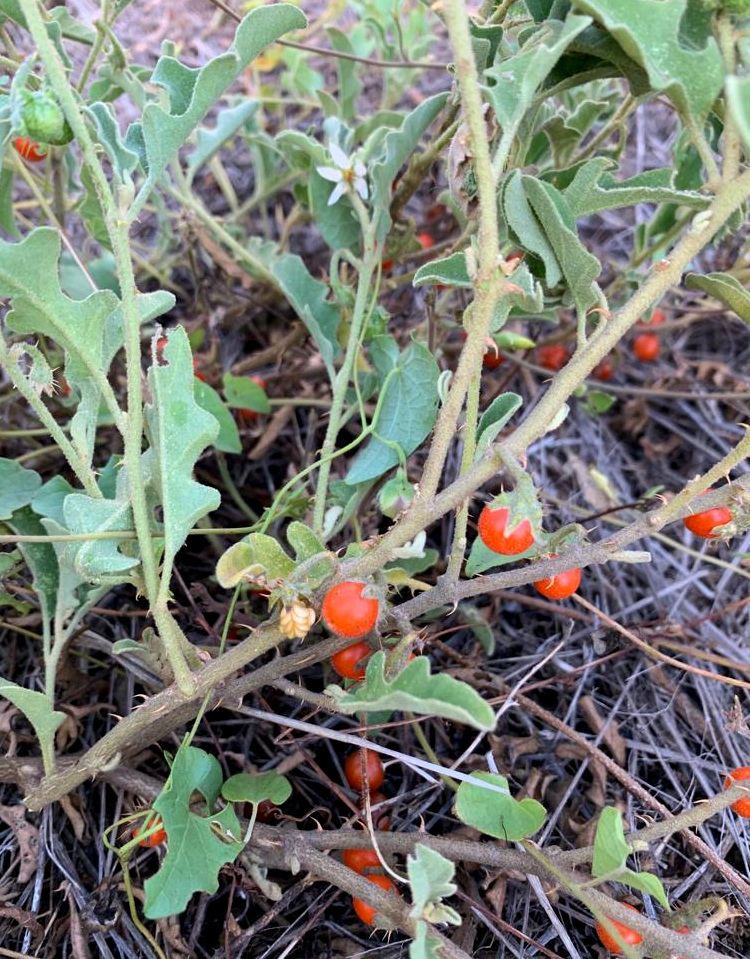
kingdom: Plantae
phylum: Tracheophyta
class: Magnoliopsida
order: Solanales
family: Solanaceae
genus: Solanum
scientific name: Solanum catombelense
